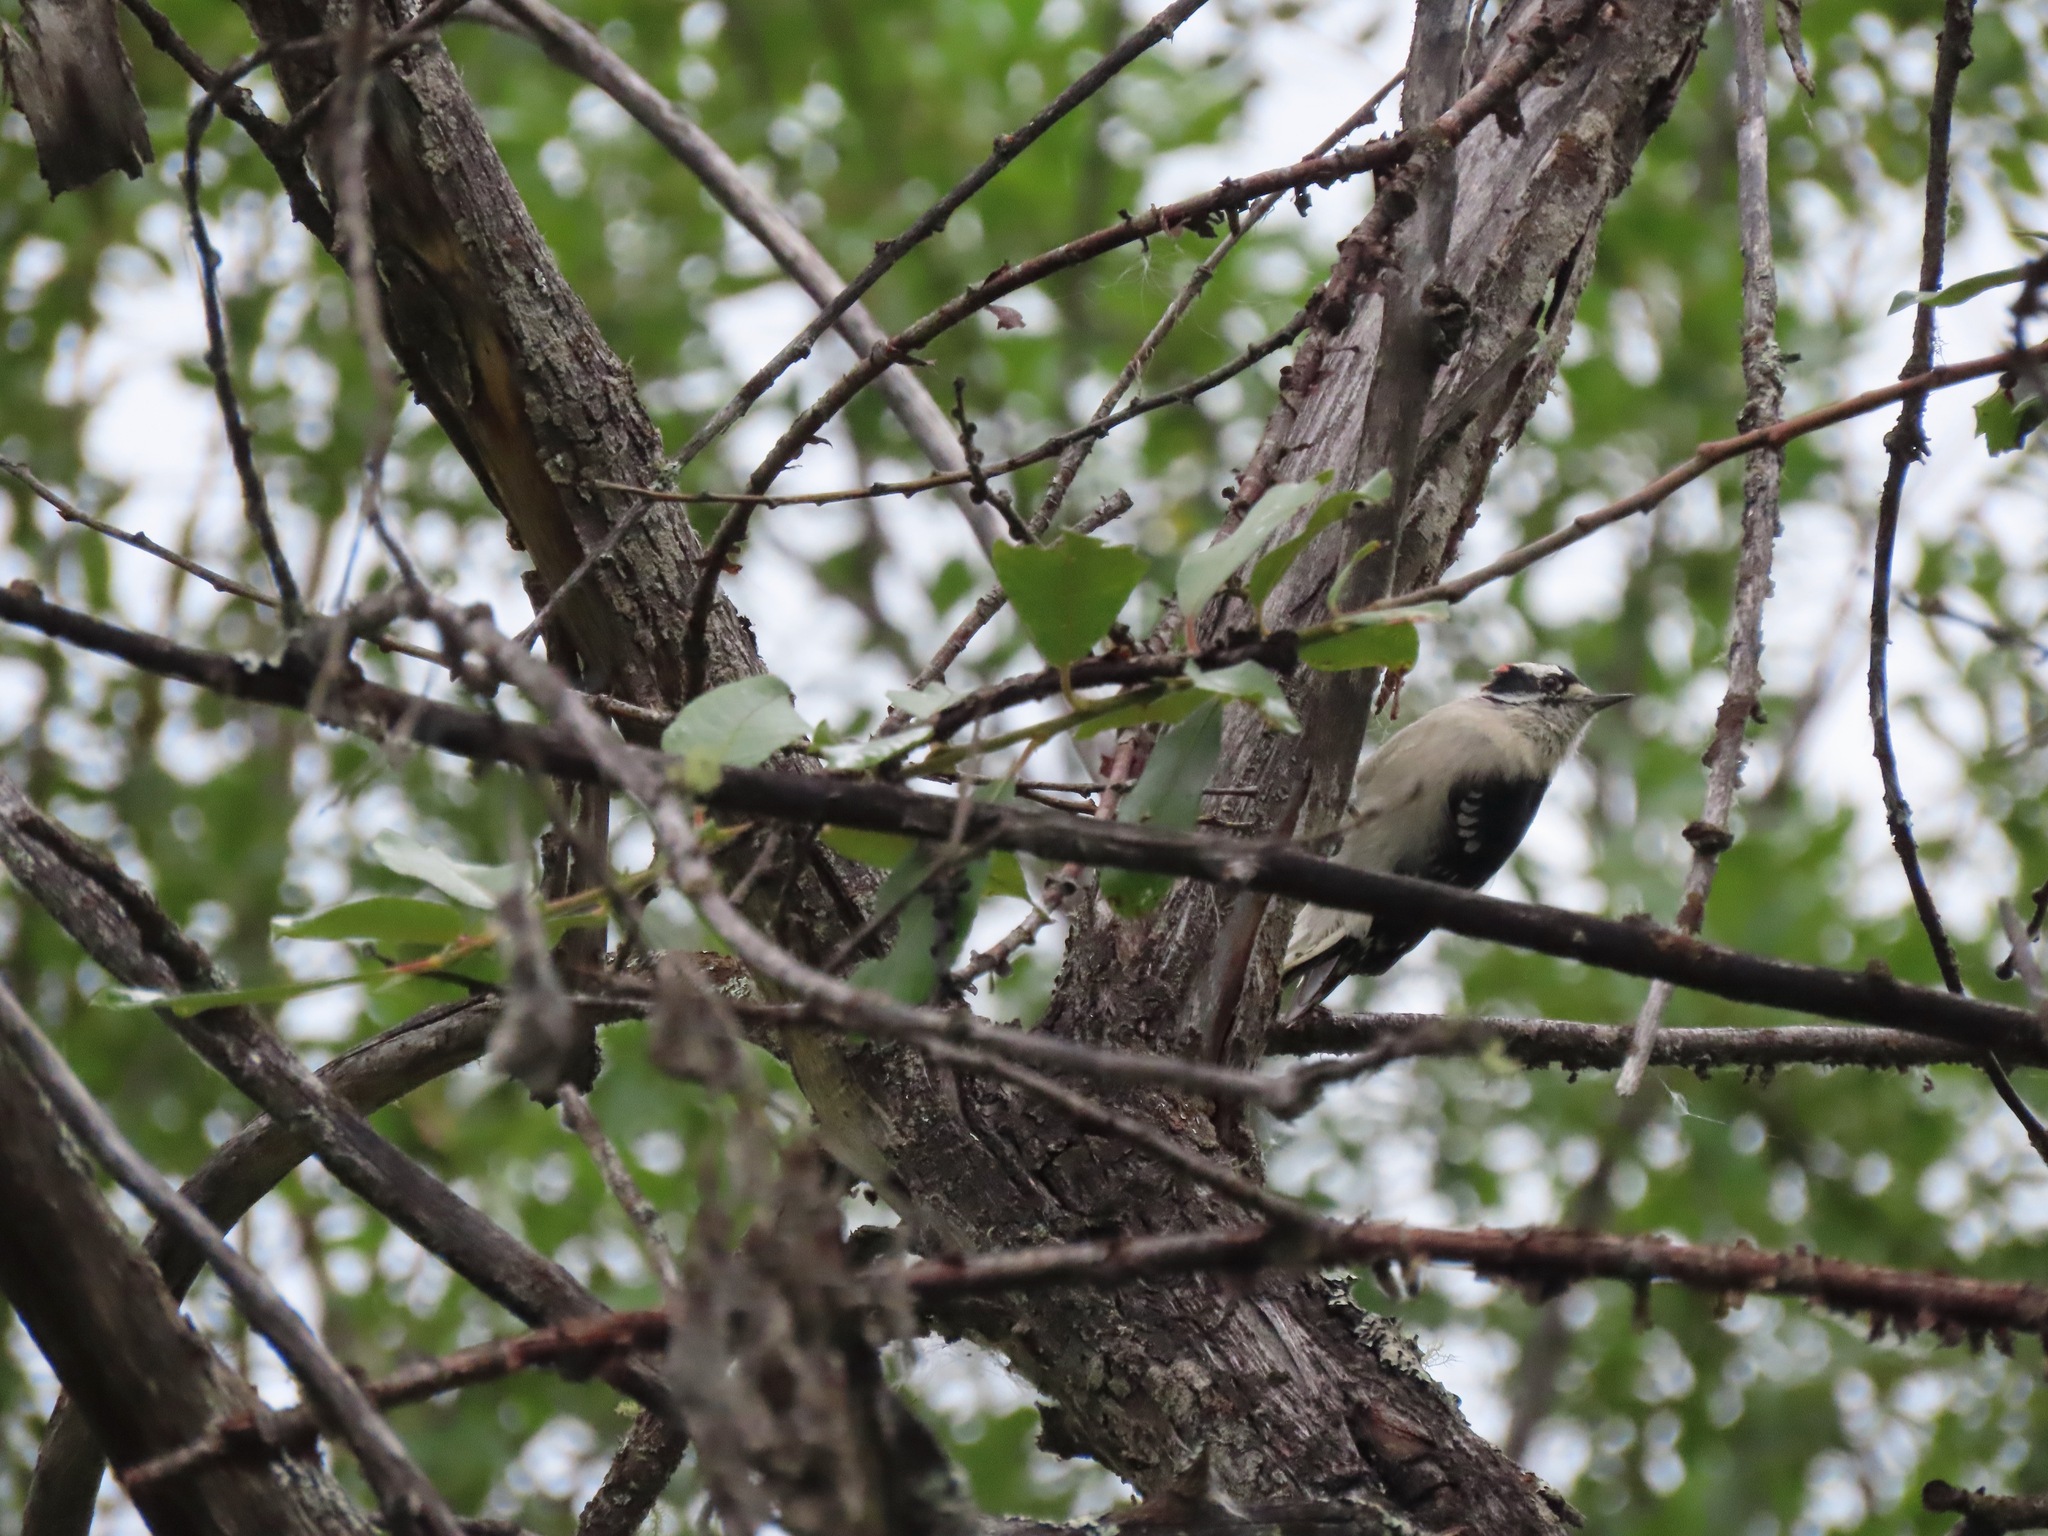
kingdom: Animalia
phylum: Chordata
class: Aves
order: Piciformes
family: Picidae
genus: Dryobates
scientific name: Dryobates pubescens
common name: Downy woodpecker
